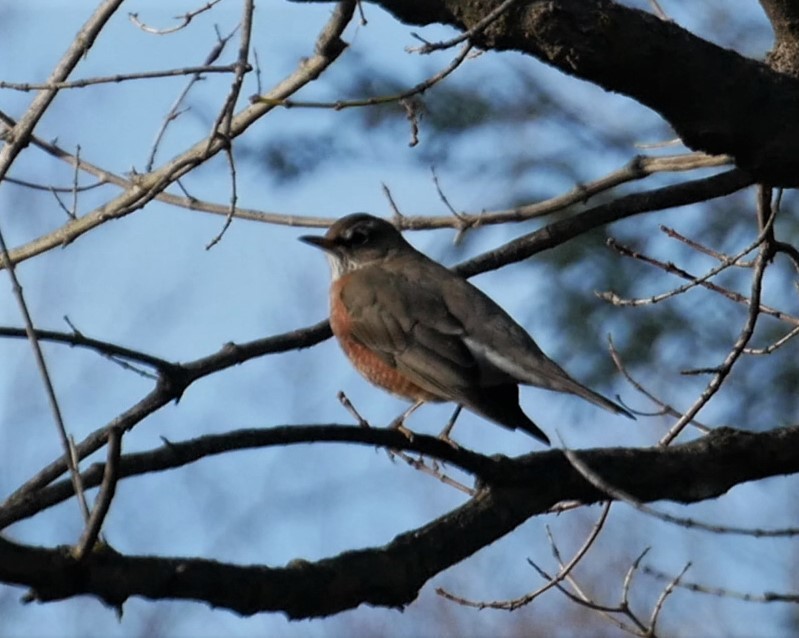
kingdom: Animalia
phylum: Chordata
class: Aves
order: Passeriformes
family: Turdidae
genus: Turdus
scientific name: Turdus migratorius
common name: American robin
